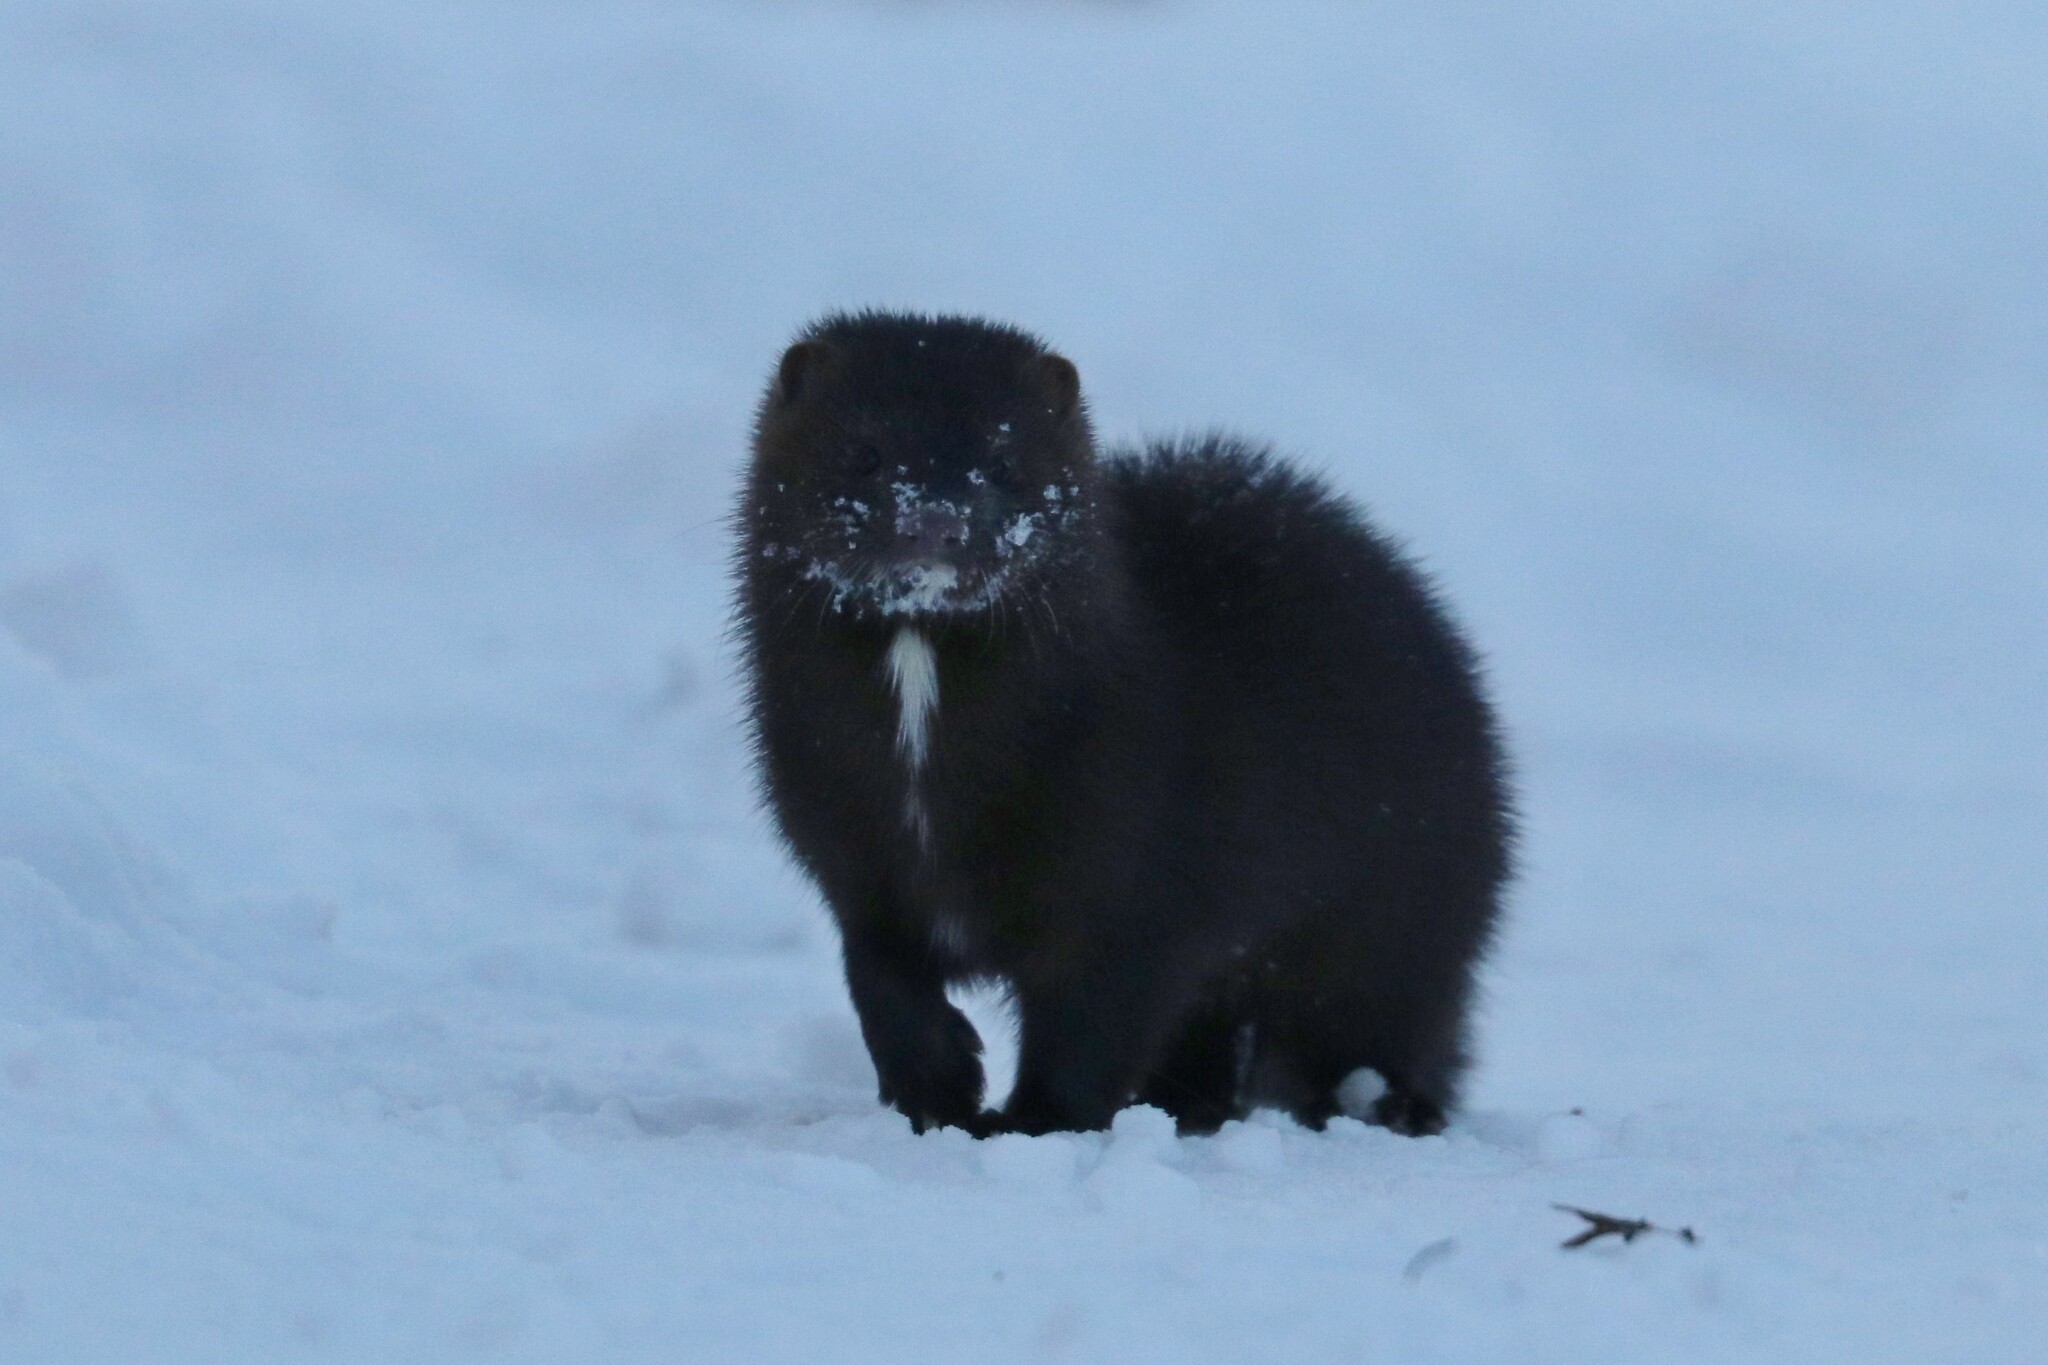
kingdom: Animalia
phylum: Chordata
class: Mammalia
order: Carnivora
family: Mustelidae
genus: Mustela
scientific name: Mustela
